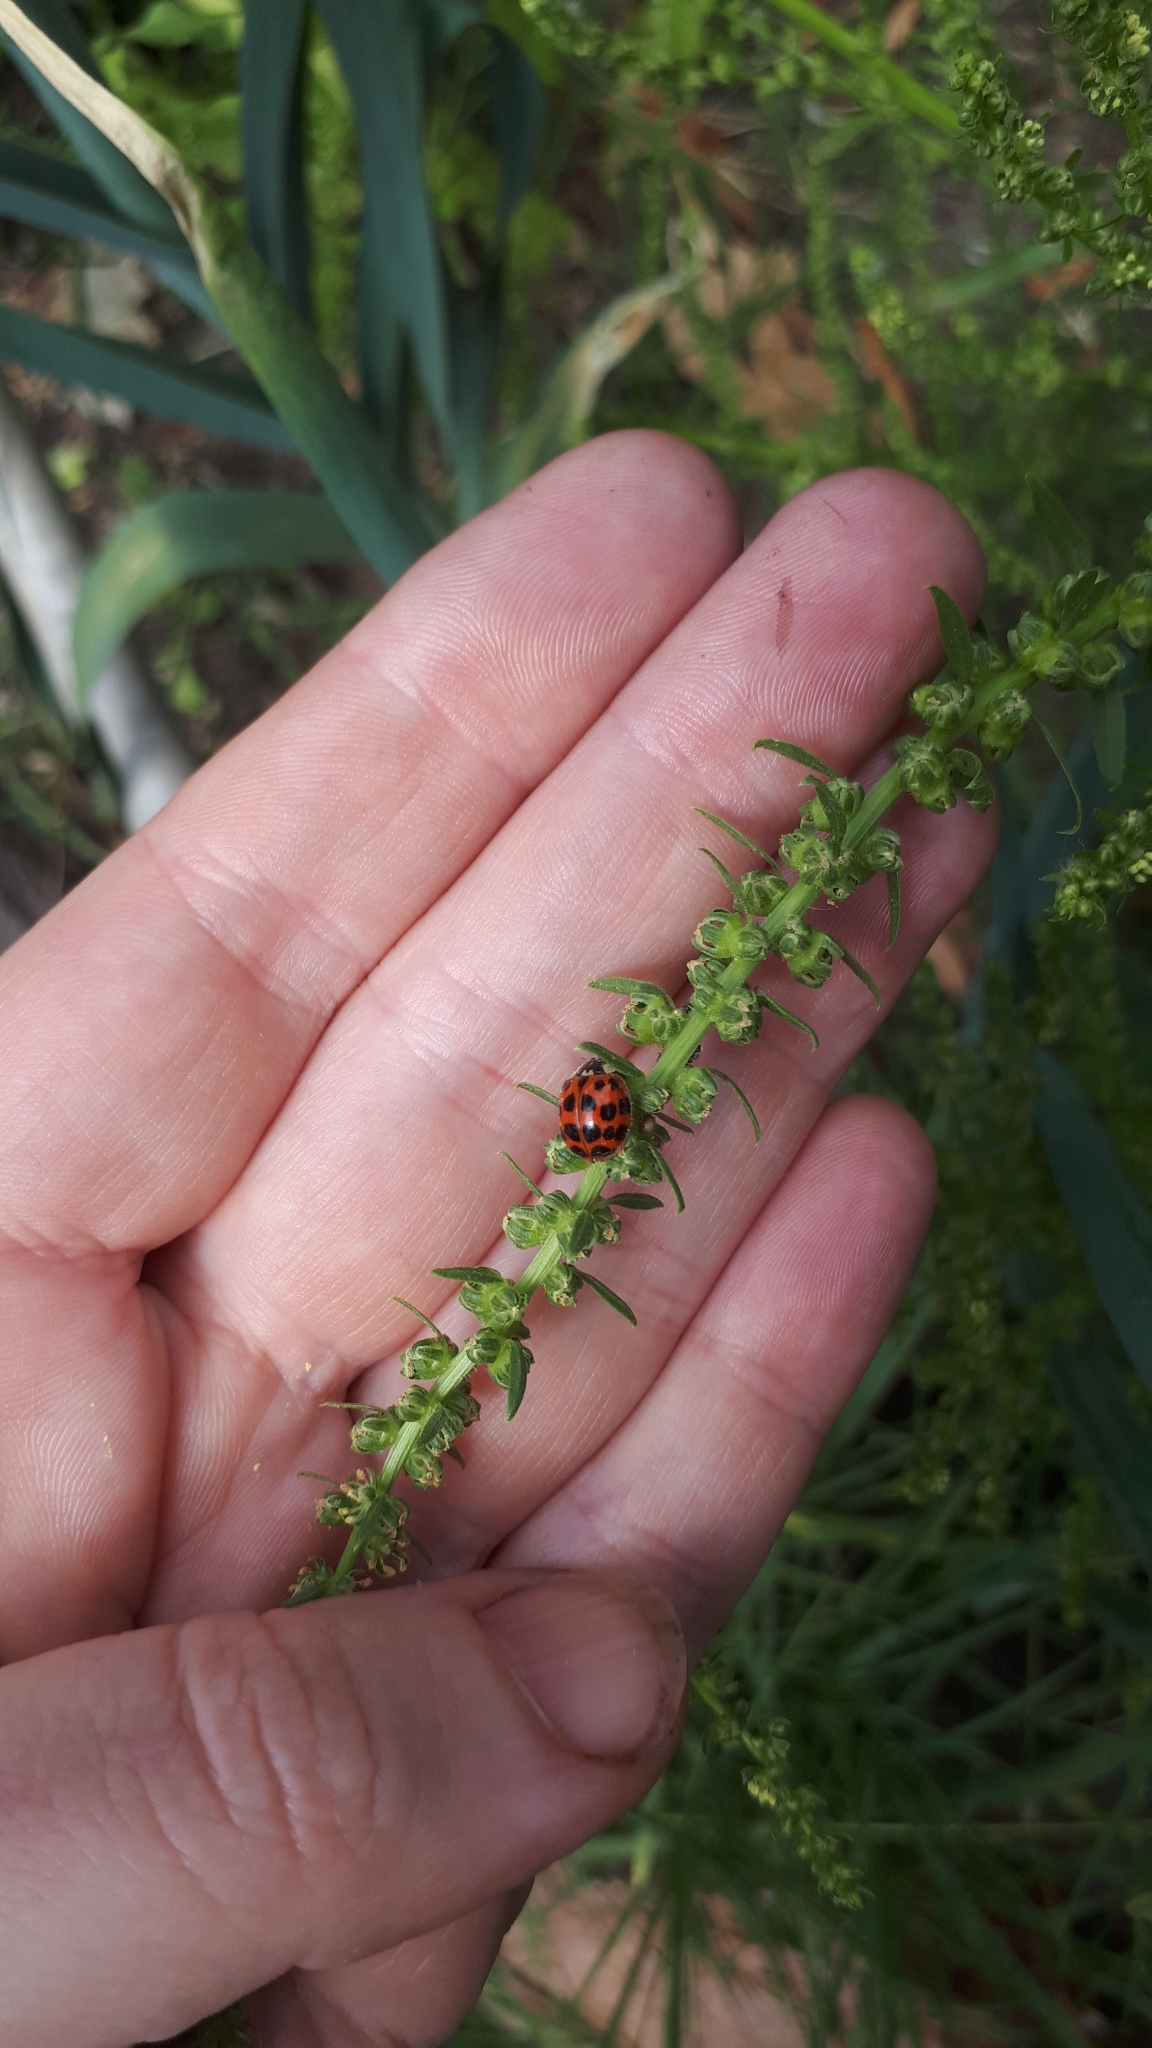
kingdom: Animalia
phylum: Arthropoda
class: Insecta
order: Coleoptera
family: Coccinellidae
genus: Harmonia
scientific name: Harmonia axyridis
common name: Harlequin ladybird
